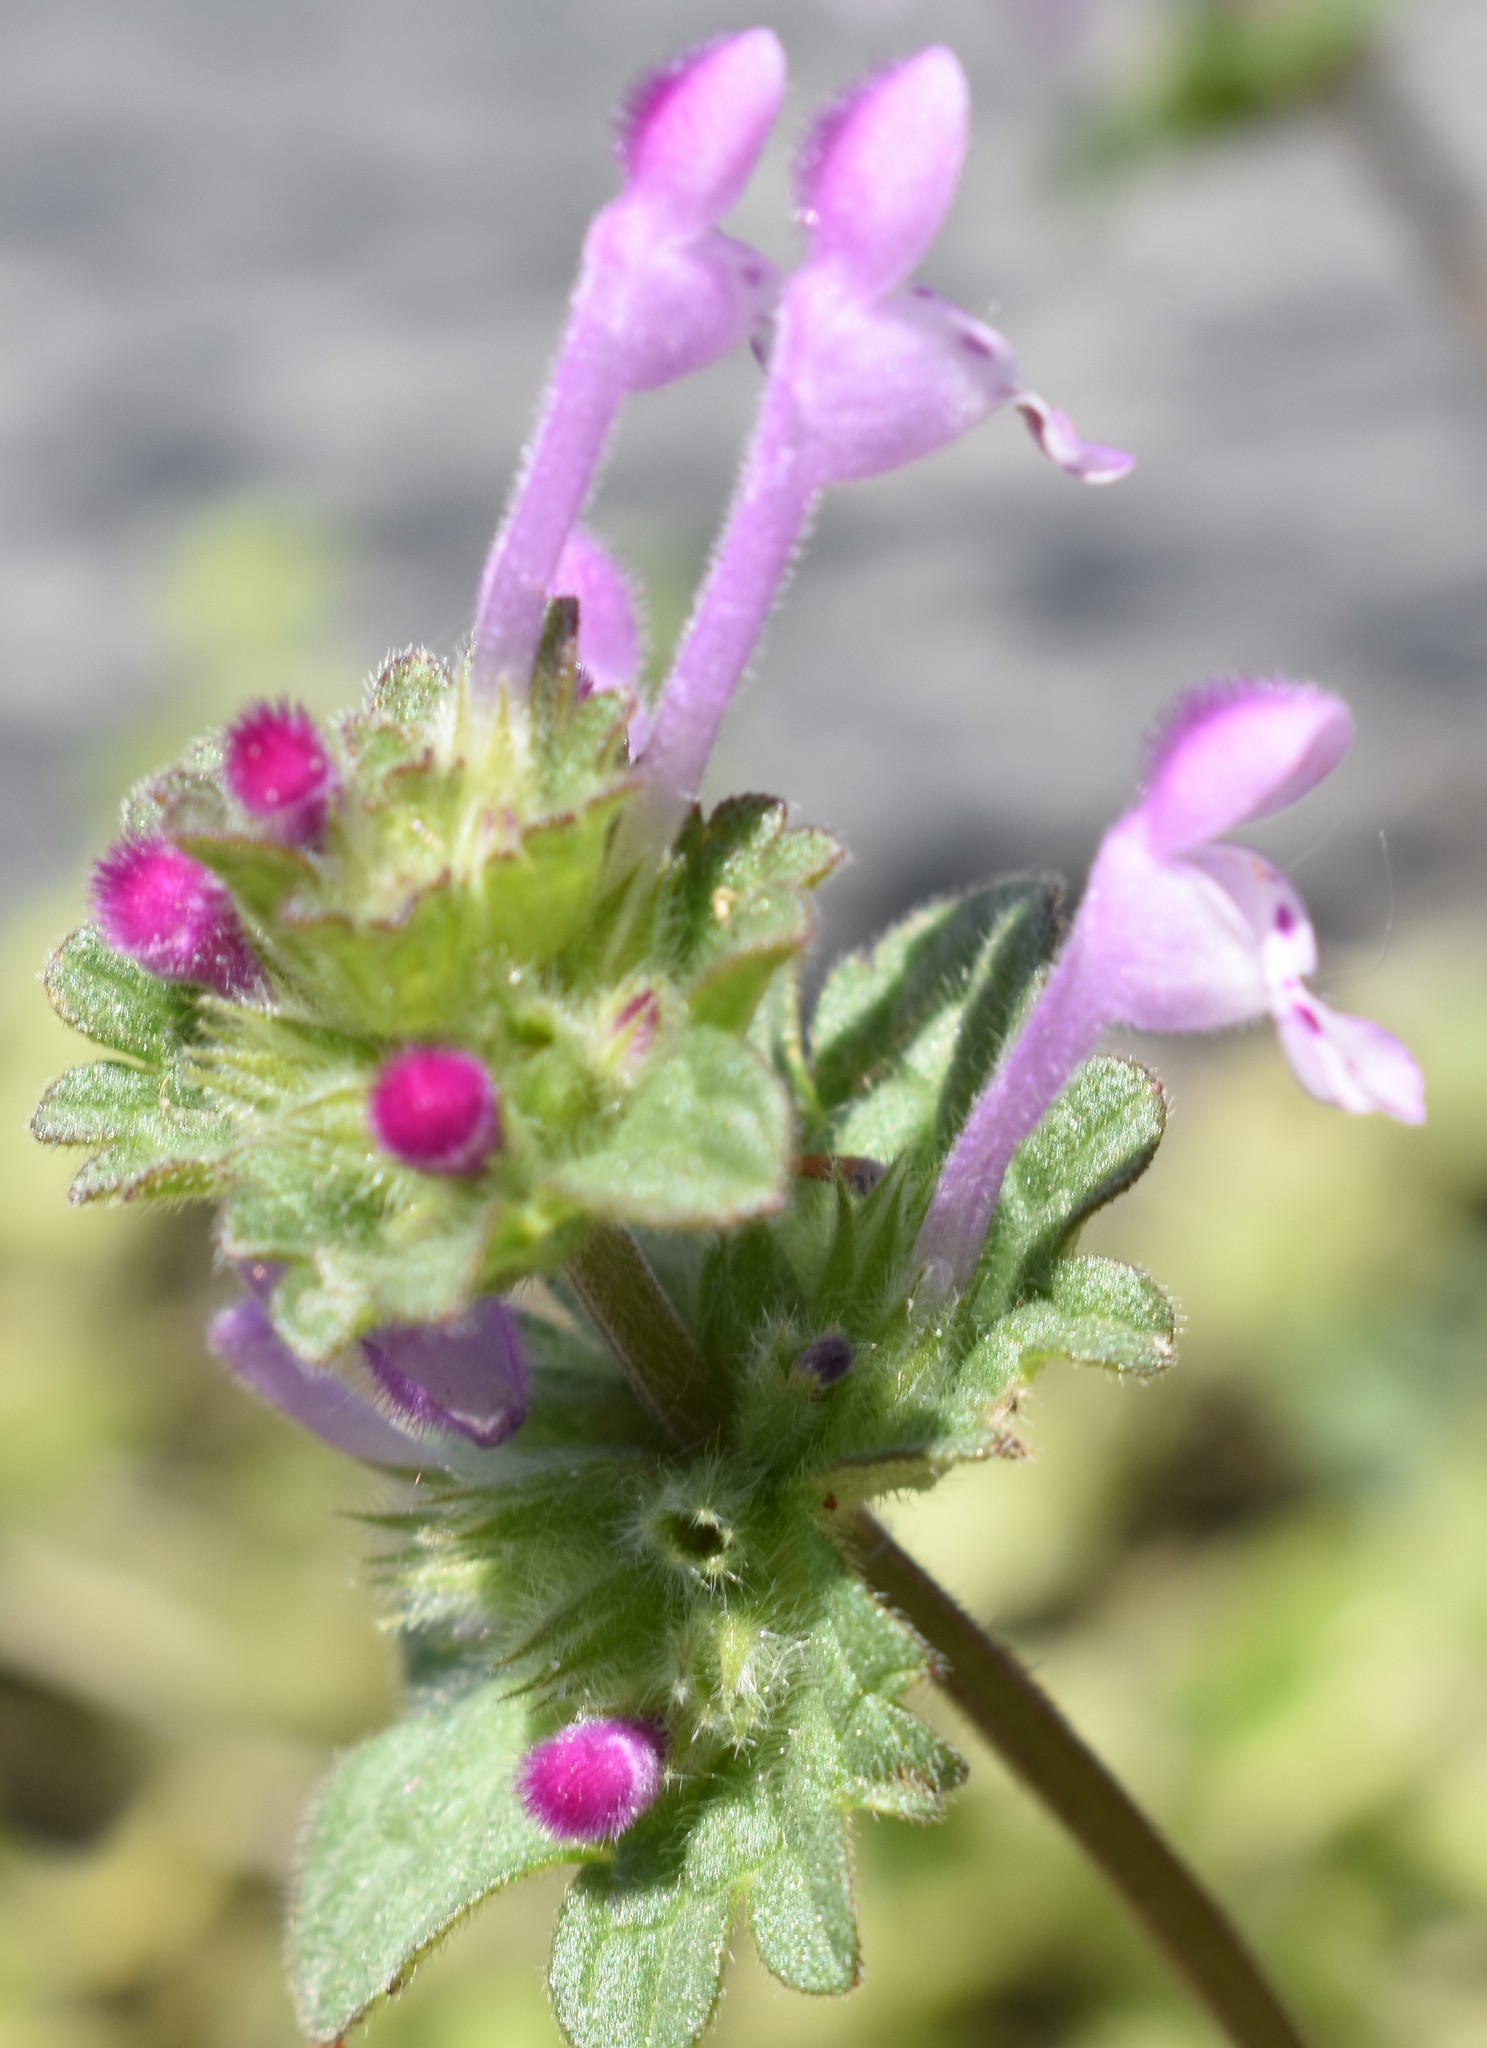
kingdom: Plantae
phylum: Tracheophyta
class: Magnoliopsida
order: Lamiales
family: Lamiaceae
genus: Lamium
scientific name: Lamium amplexicaule
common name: Henbit dead-nettle
